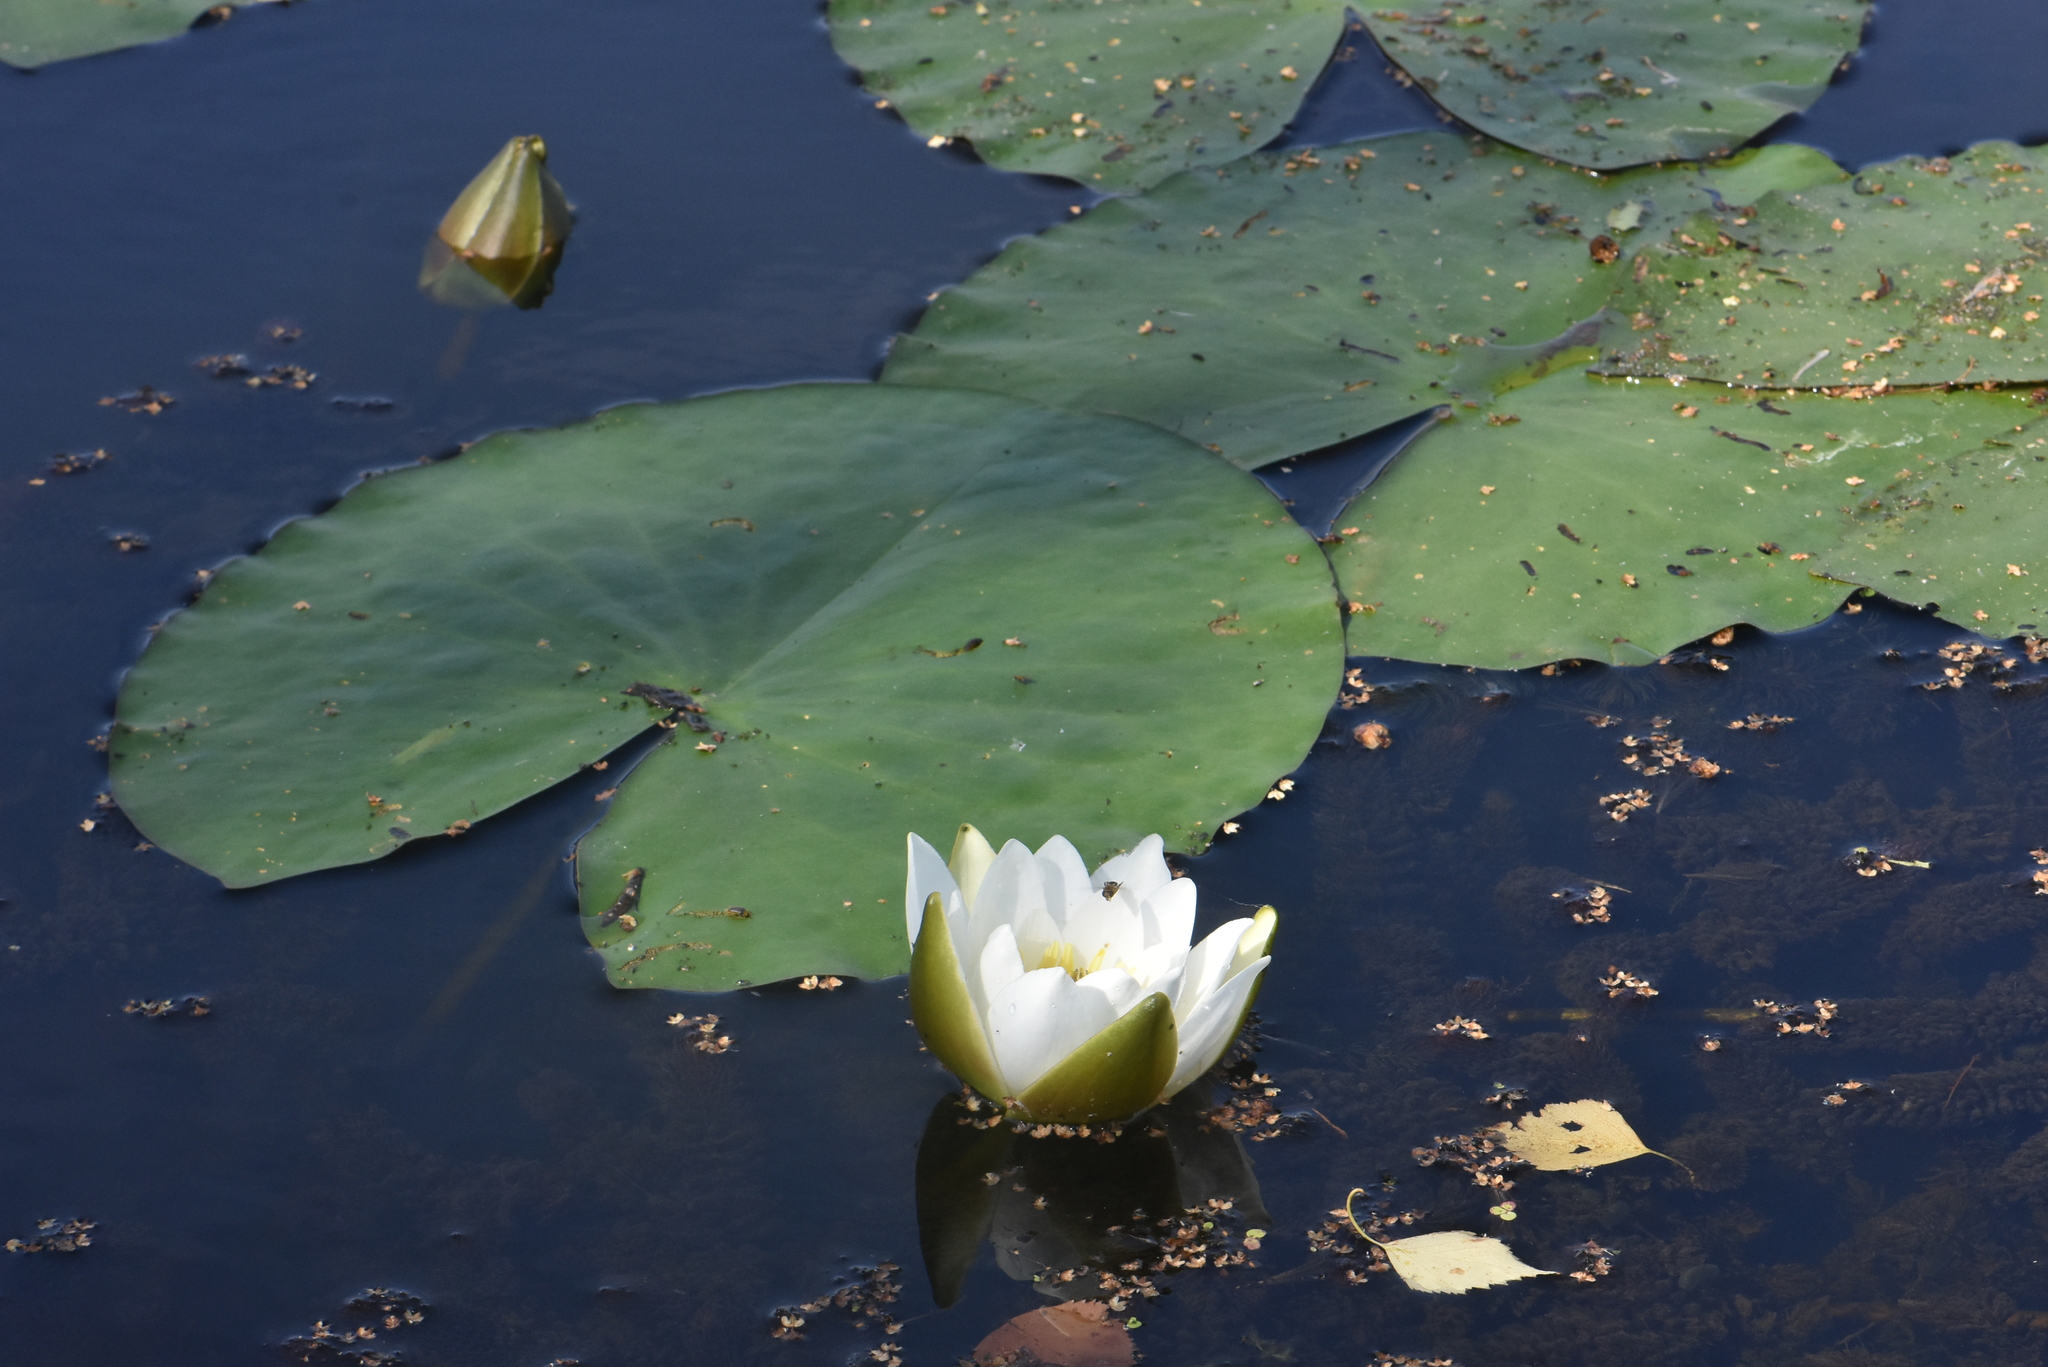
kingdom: Plantae
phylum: Tracheophyta
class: Magnoliopsida
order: Nymphaeales
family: Nymphaeaceae
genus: Nymphaea
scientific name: Nymphaea candida
